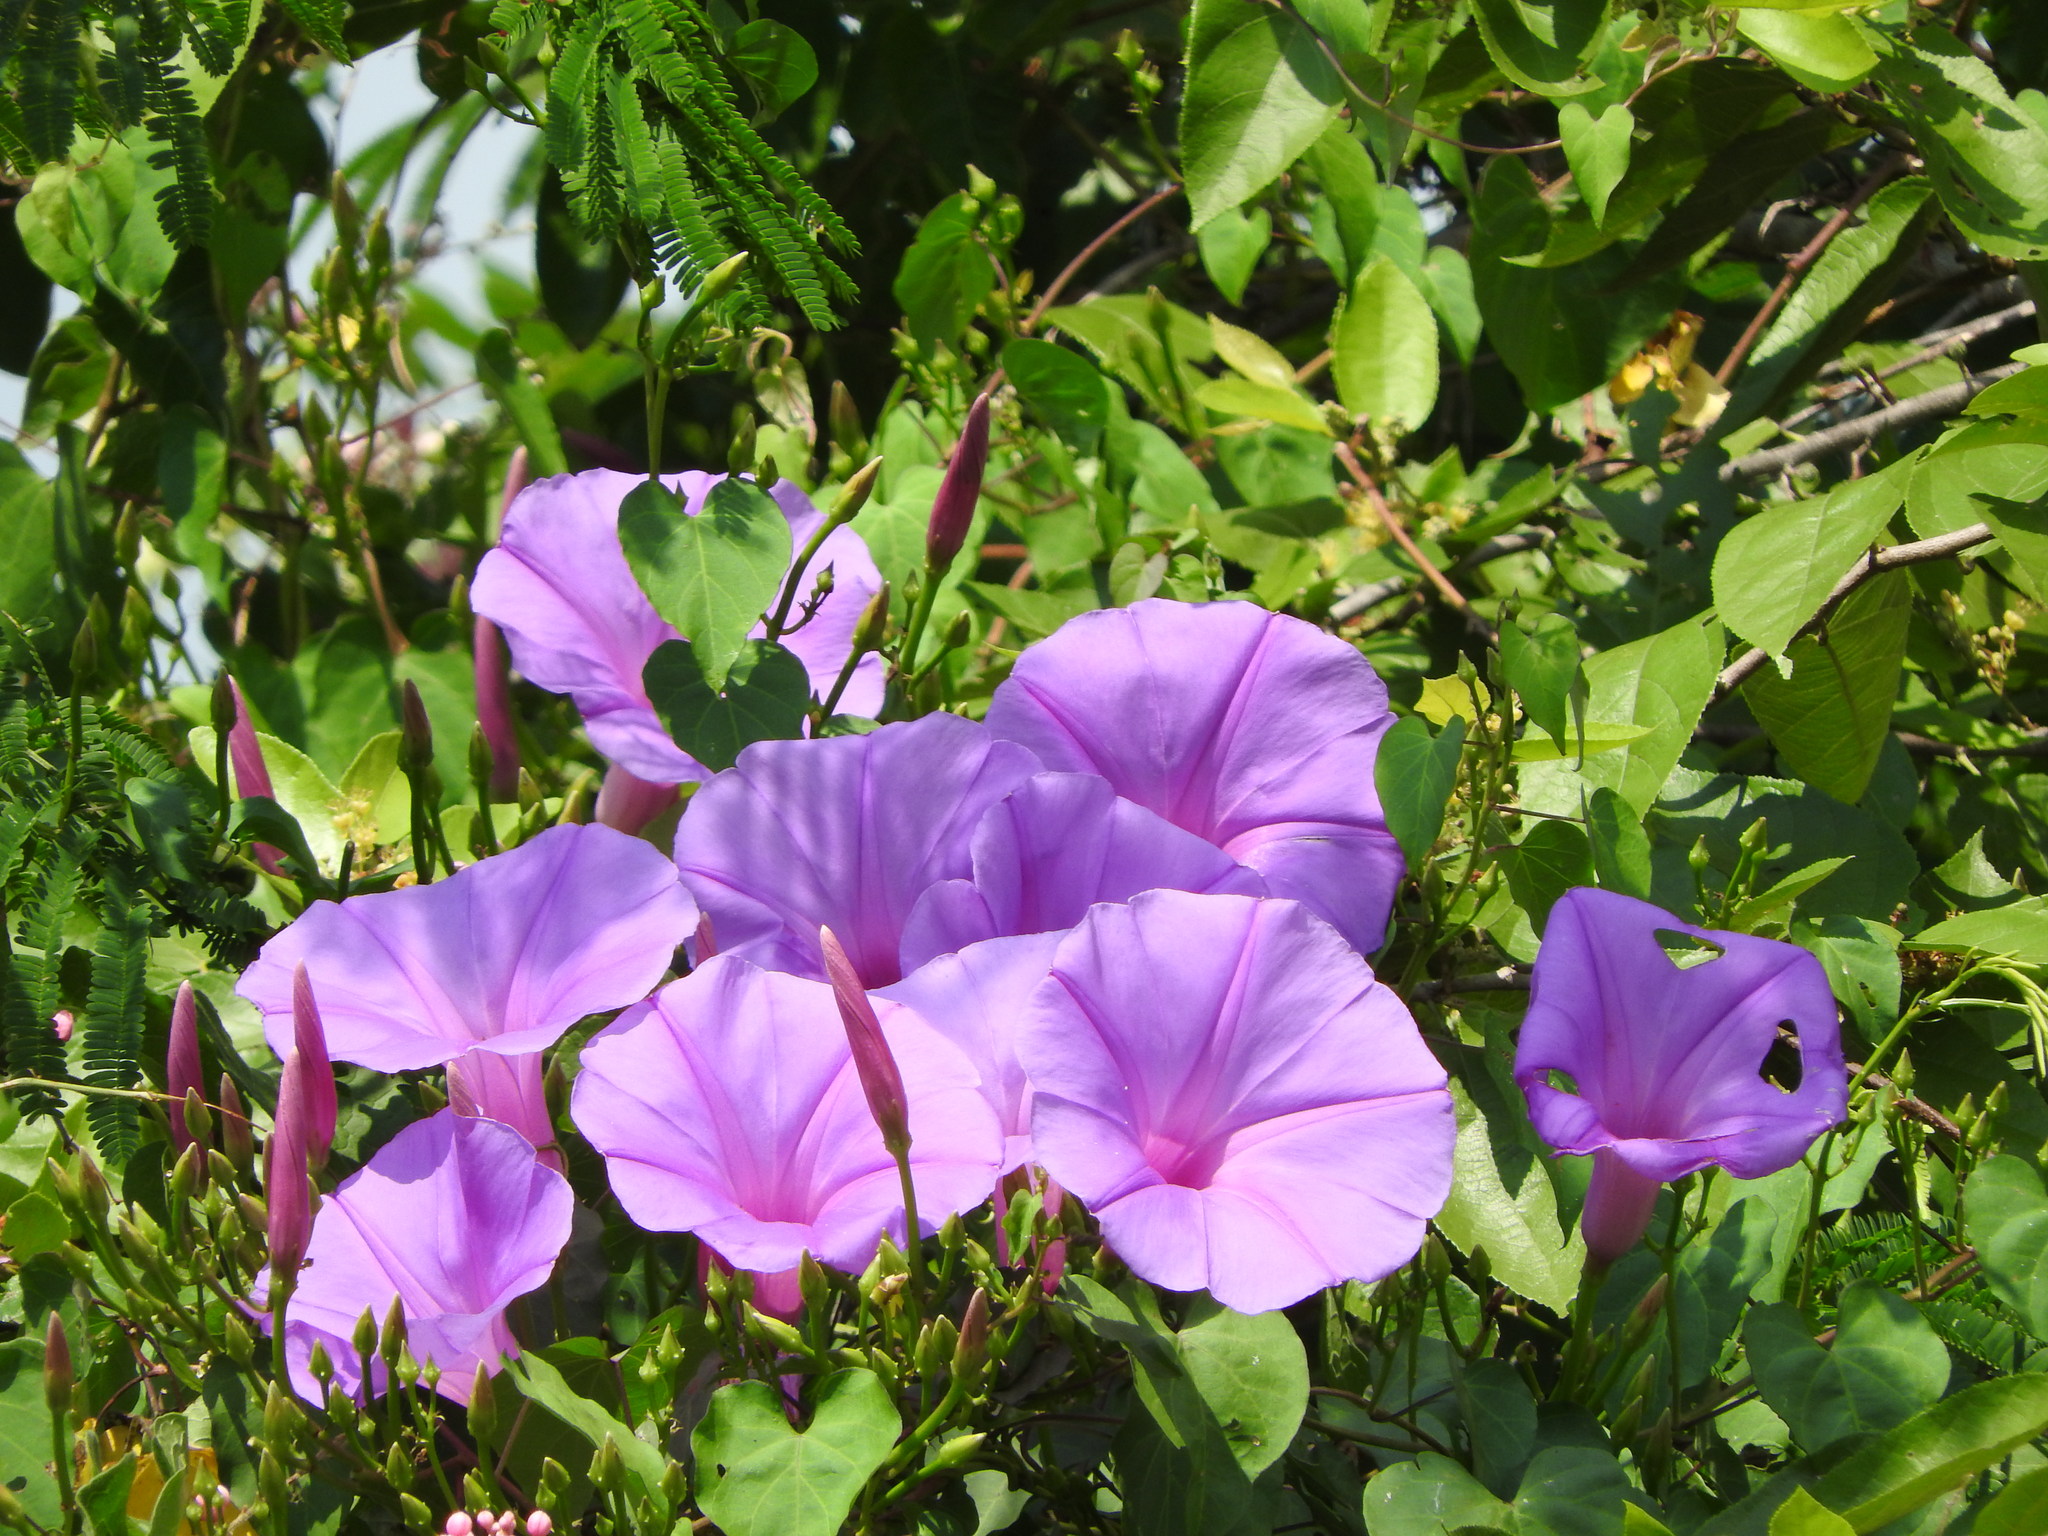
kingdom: Plantae
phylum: Tracheophyta
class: Magnoliopsida
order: Solanales
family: Convolvulaceae
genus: Ipomoea
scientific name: Ipomoea pedicellaris
